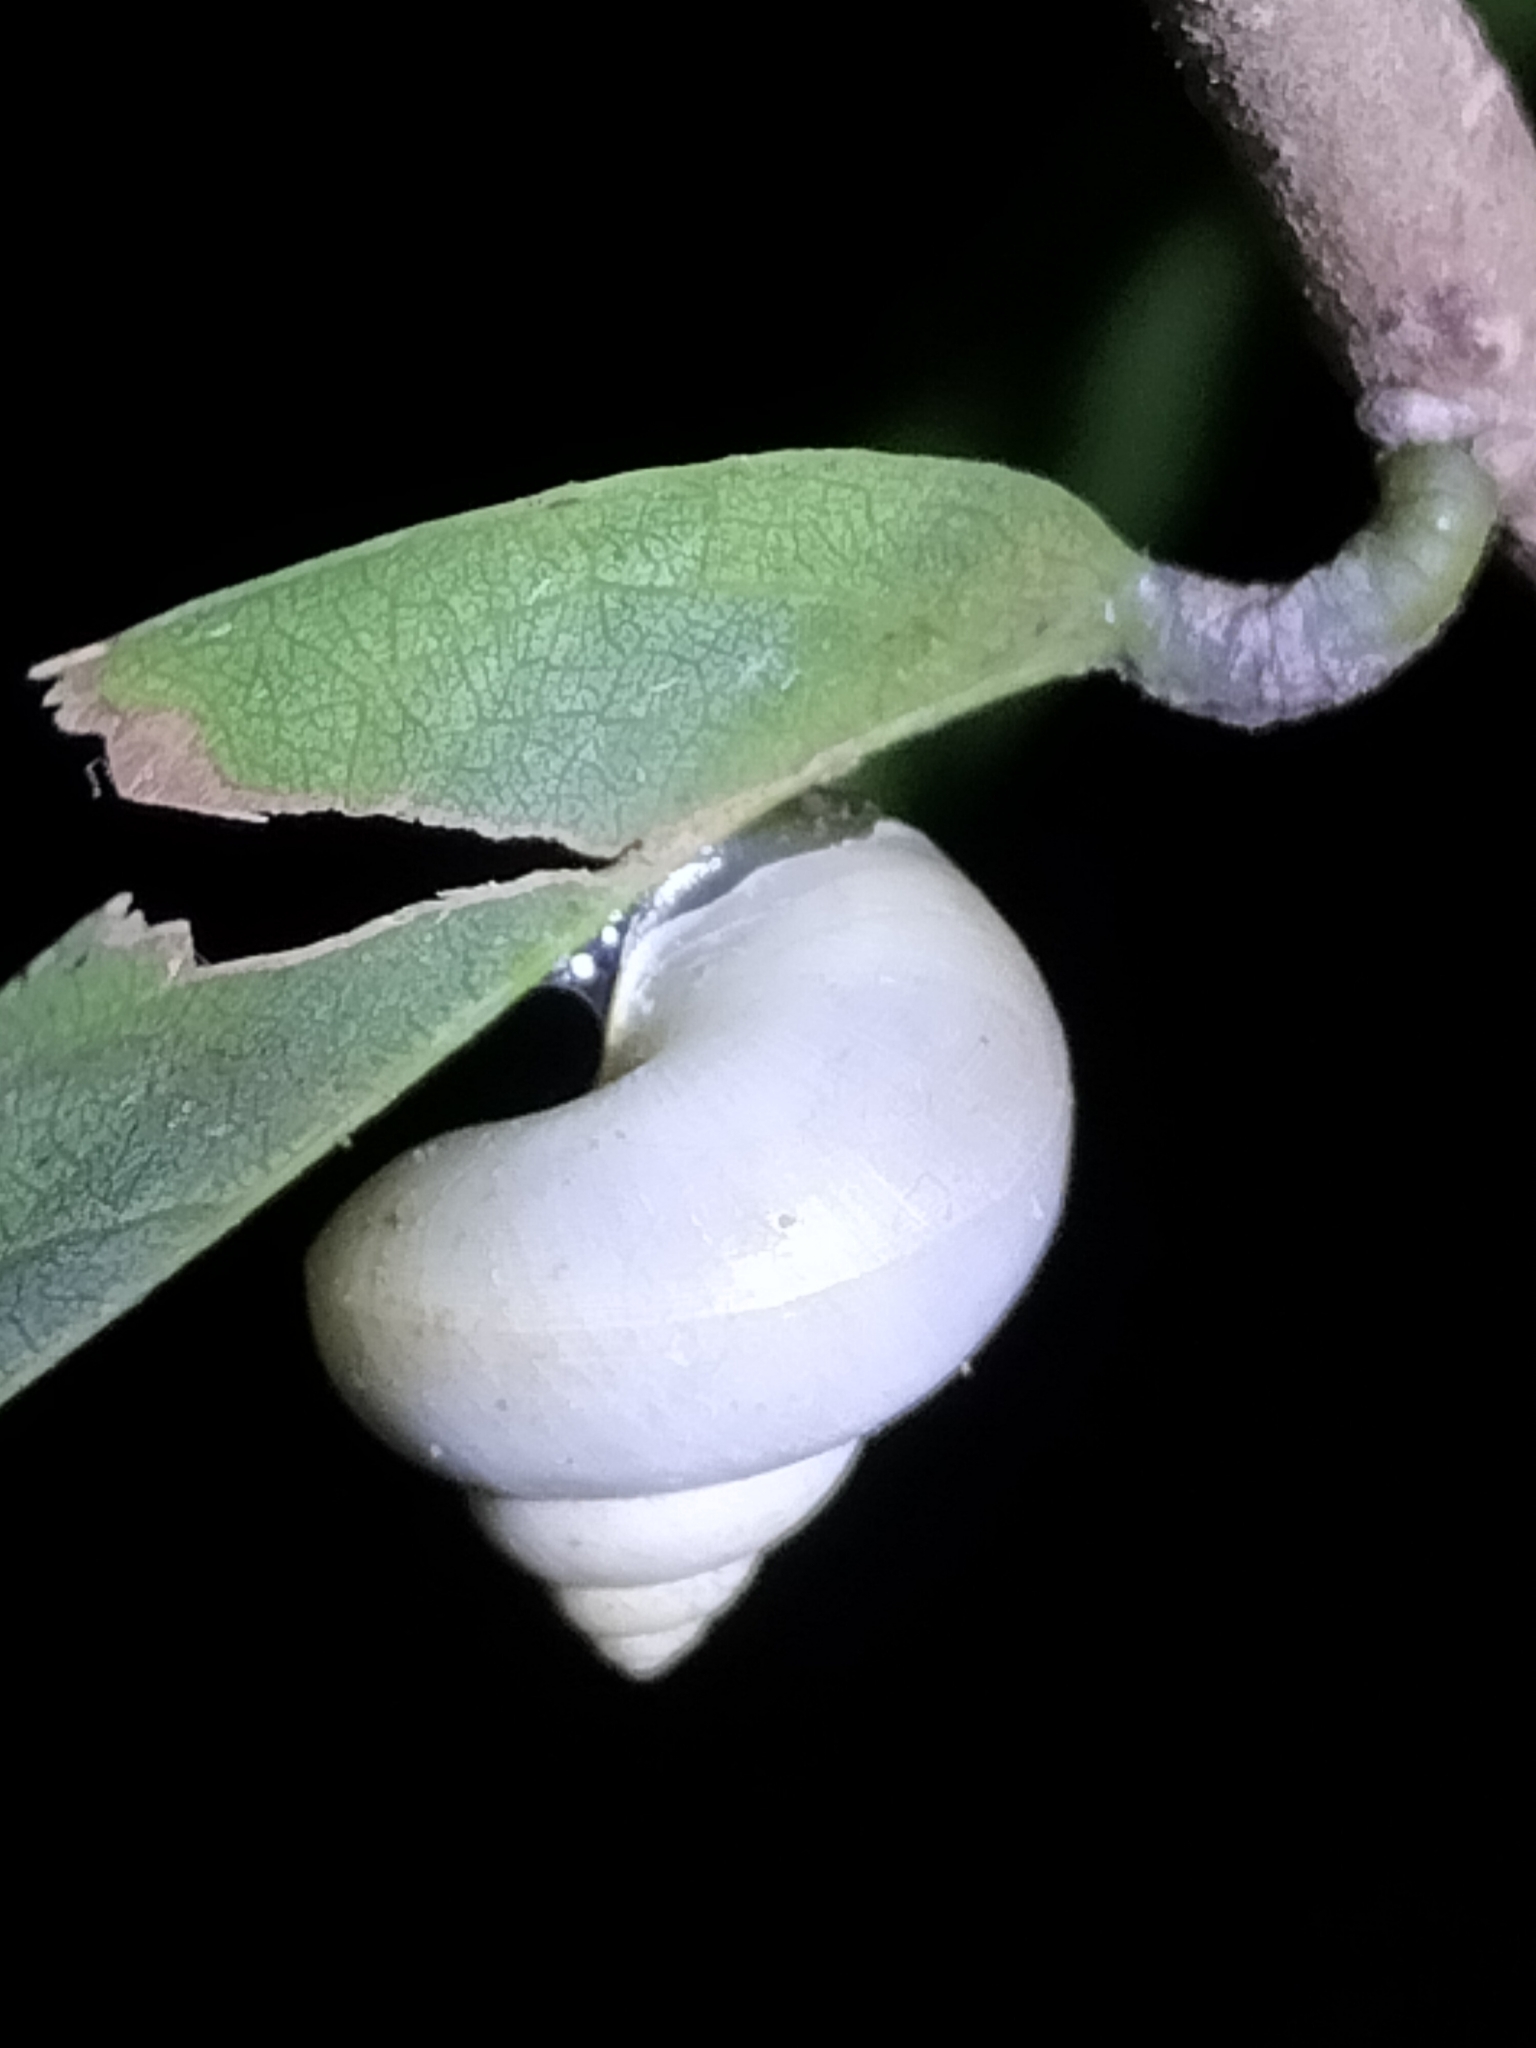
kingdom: Animalia
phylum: Mollusca
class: Gastropoda
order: Architaenioglossa
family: Cyclophoridae
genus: Leptopoma
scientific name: Leptopoma perlucidum
